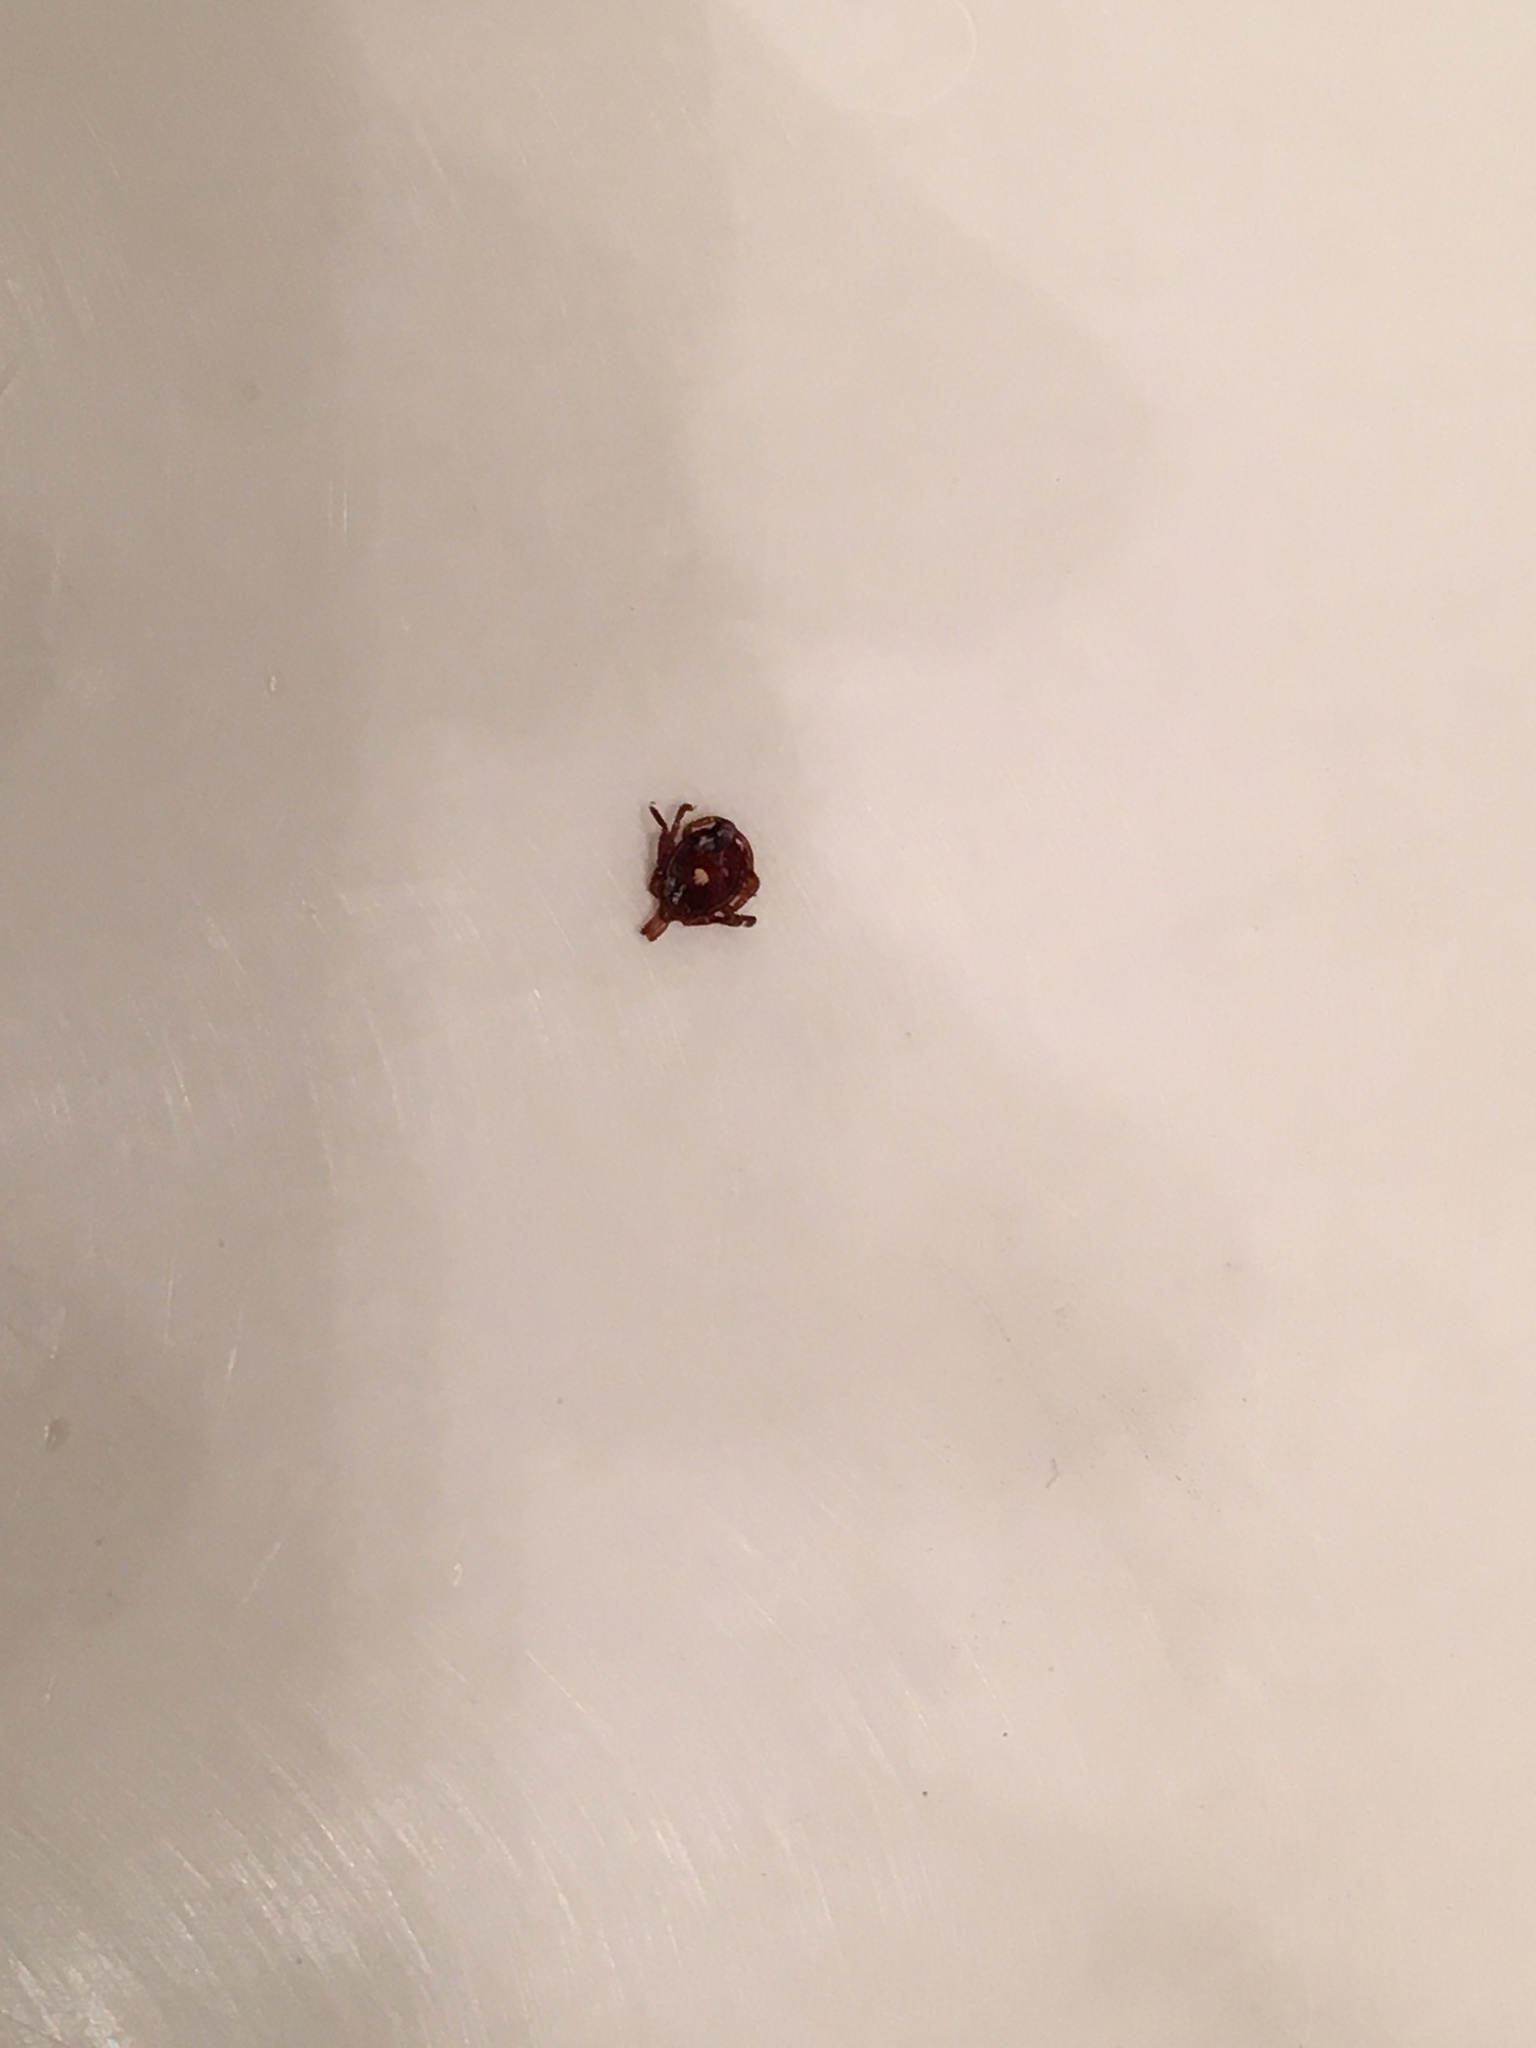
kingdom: Animalia
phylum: Arthropoda
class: Arachnida
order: Ixodida
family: Ixodidae
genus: Amblyomma
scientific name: Amblyomma americanum
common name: Lone star tick
